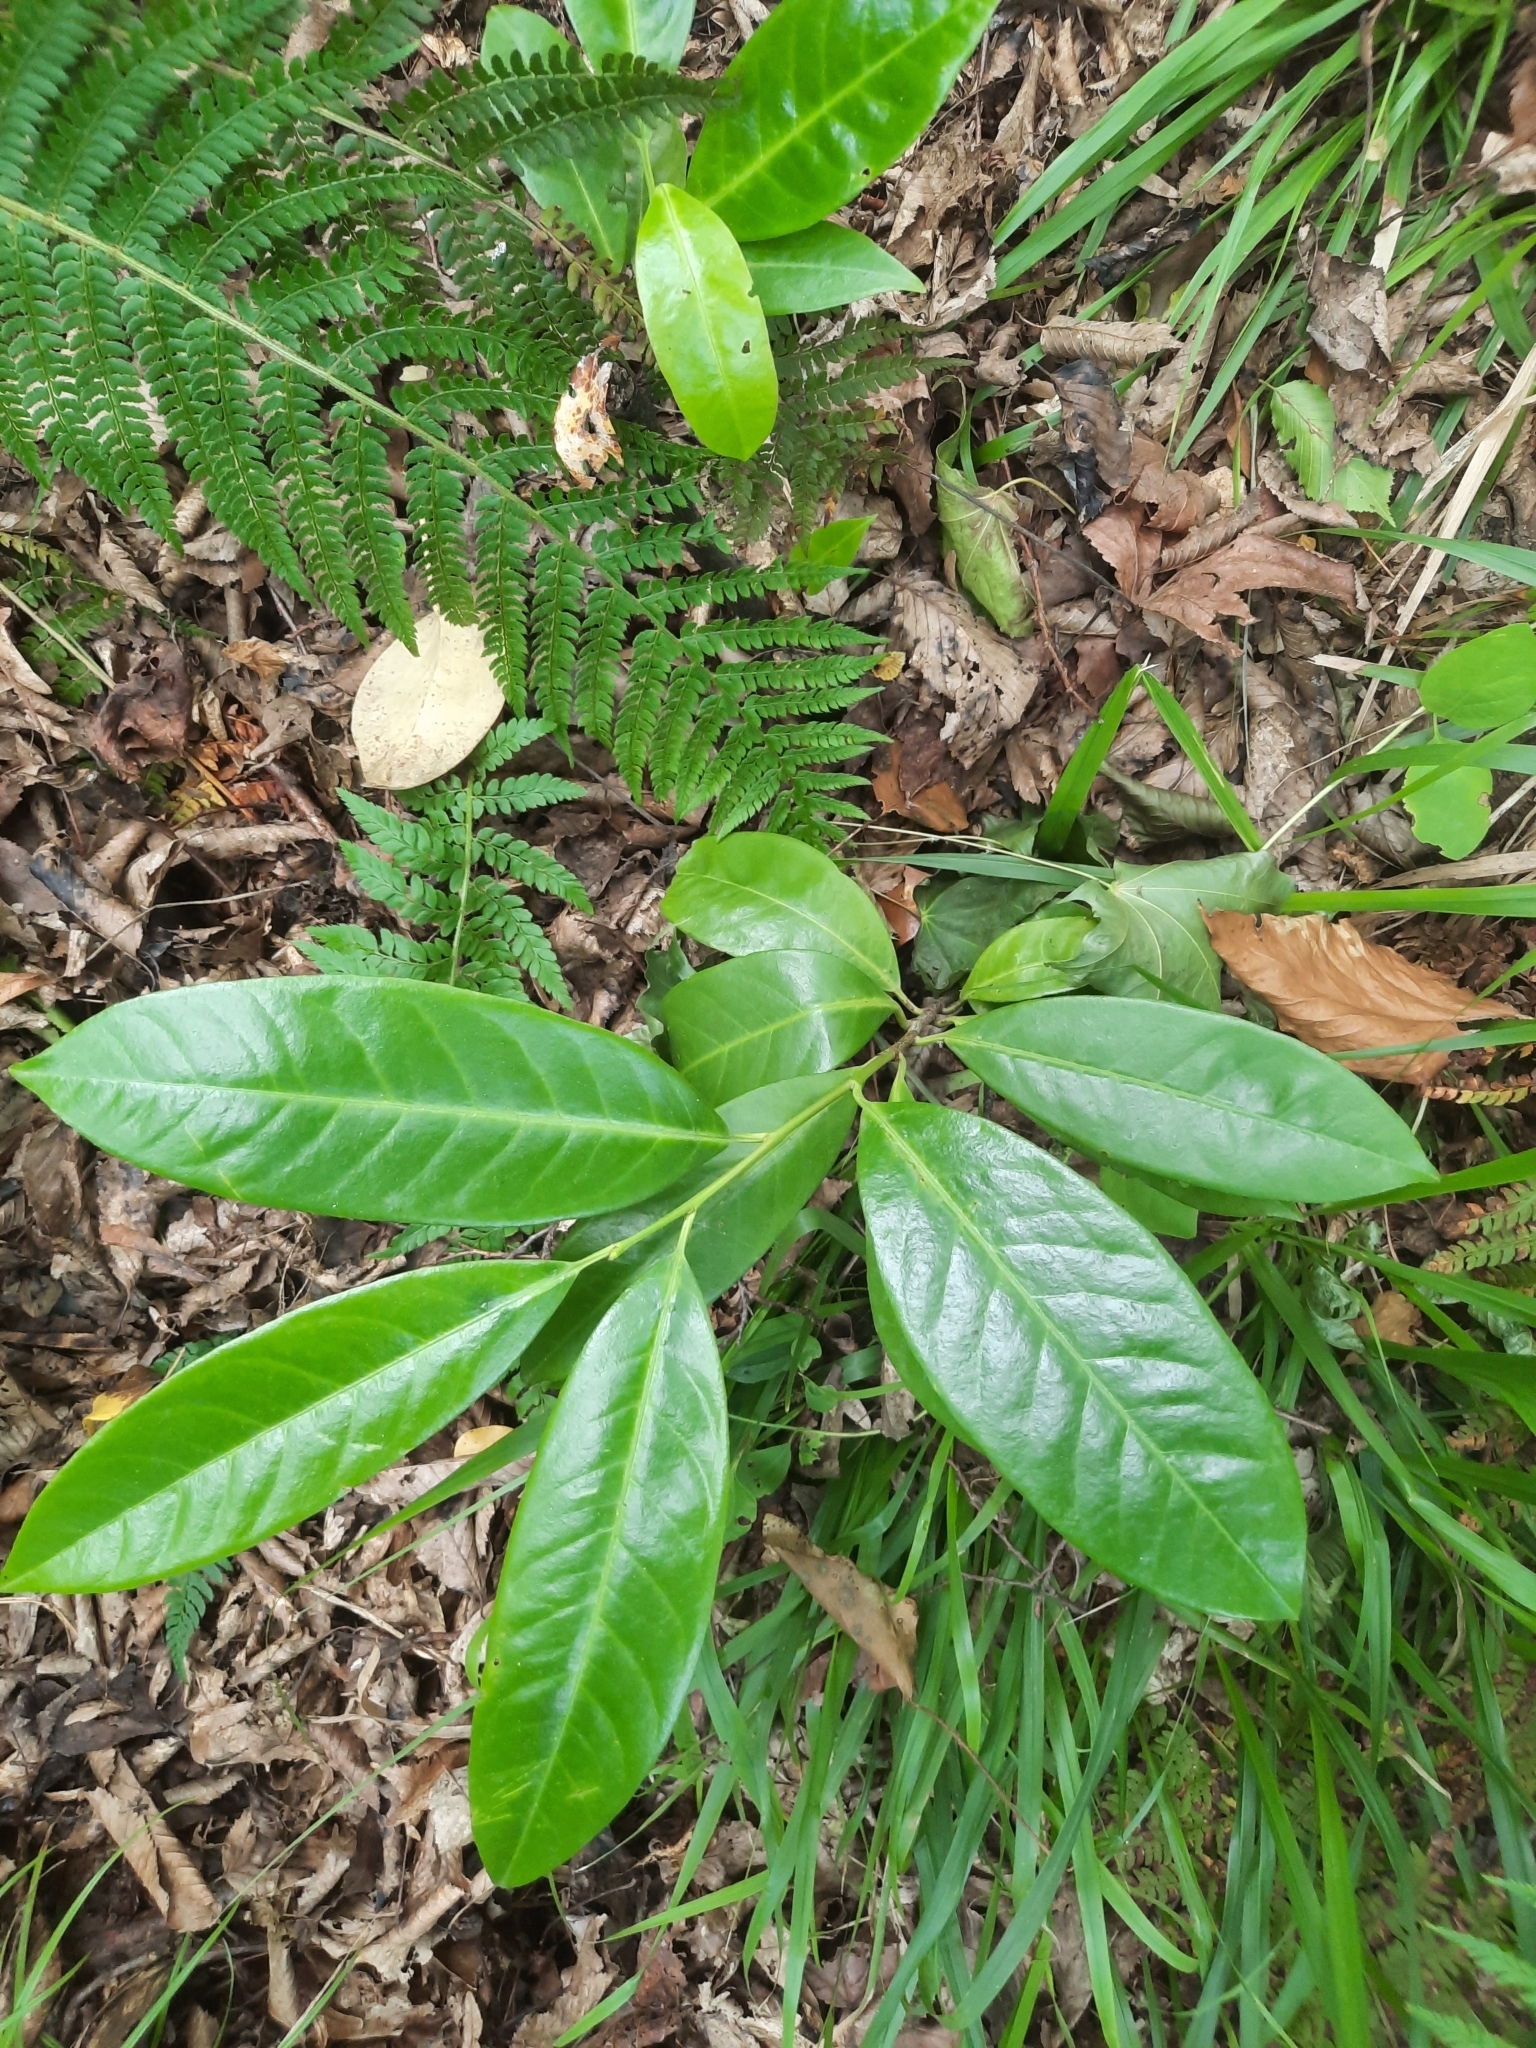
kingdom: Plantae
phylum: Tracheophyta
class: Magnoliopsida
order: Rosales
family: Rosaceae
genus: Prunus
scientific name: Prunus laurocerasus
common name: Cherry laurel
